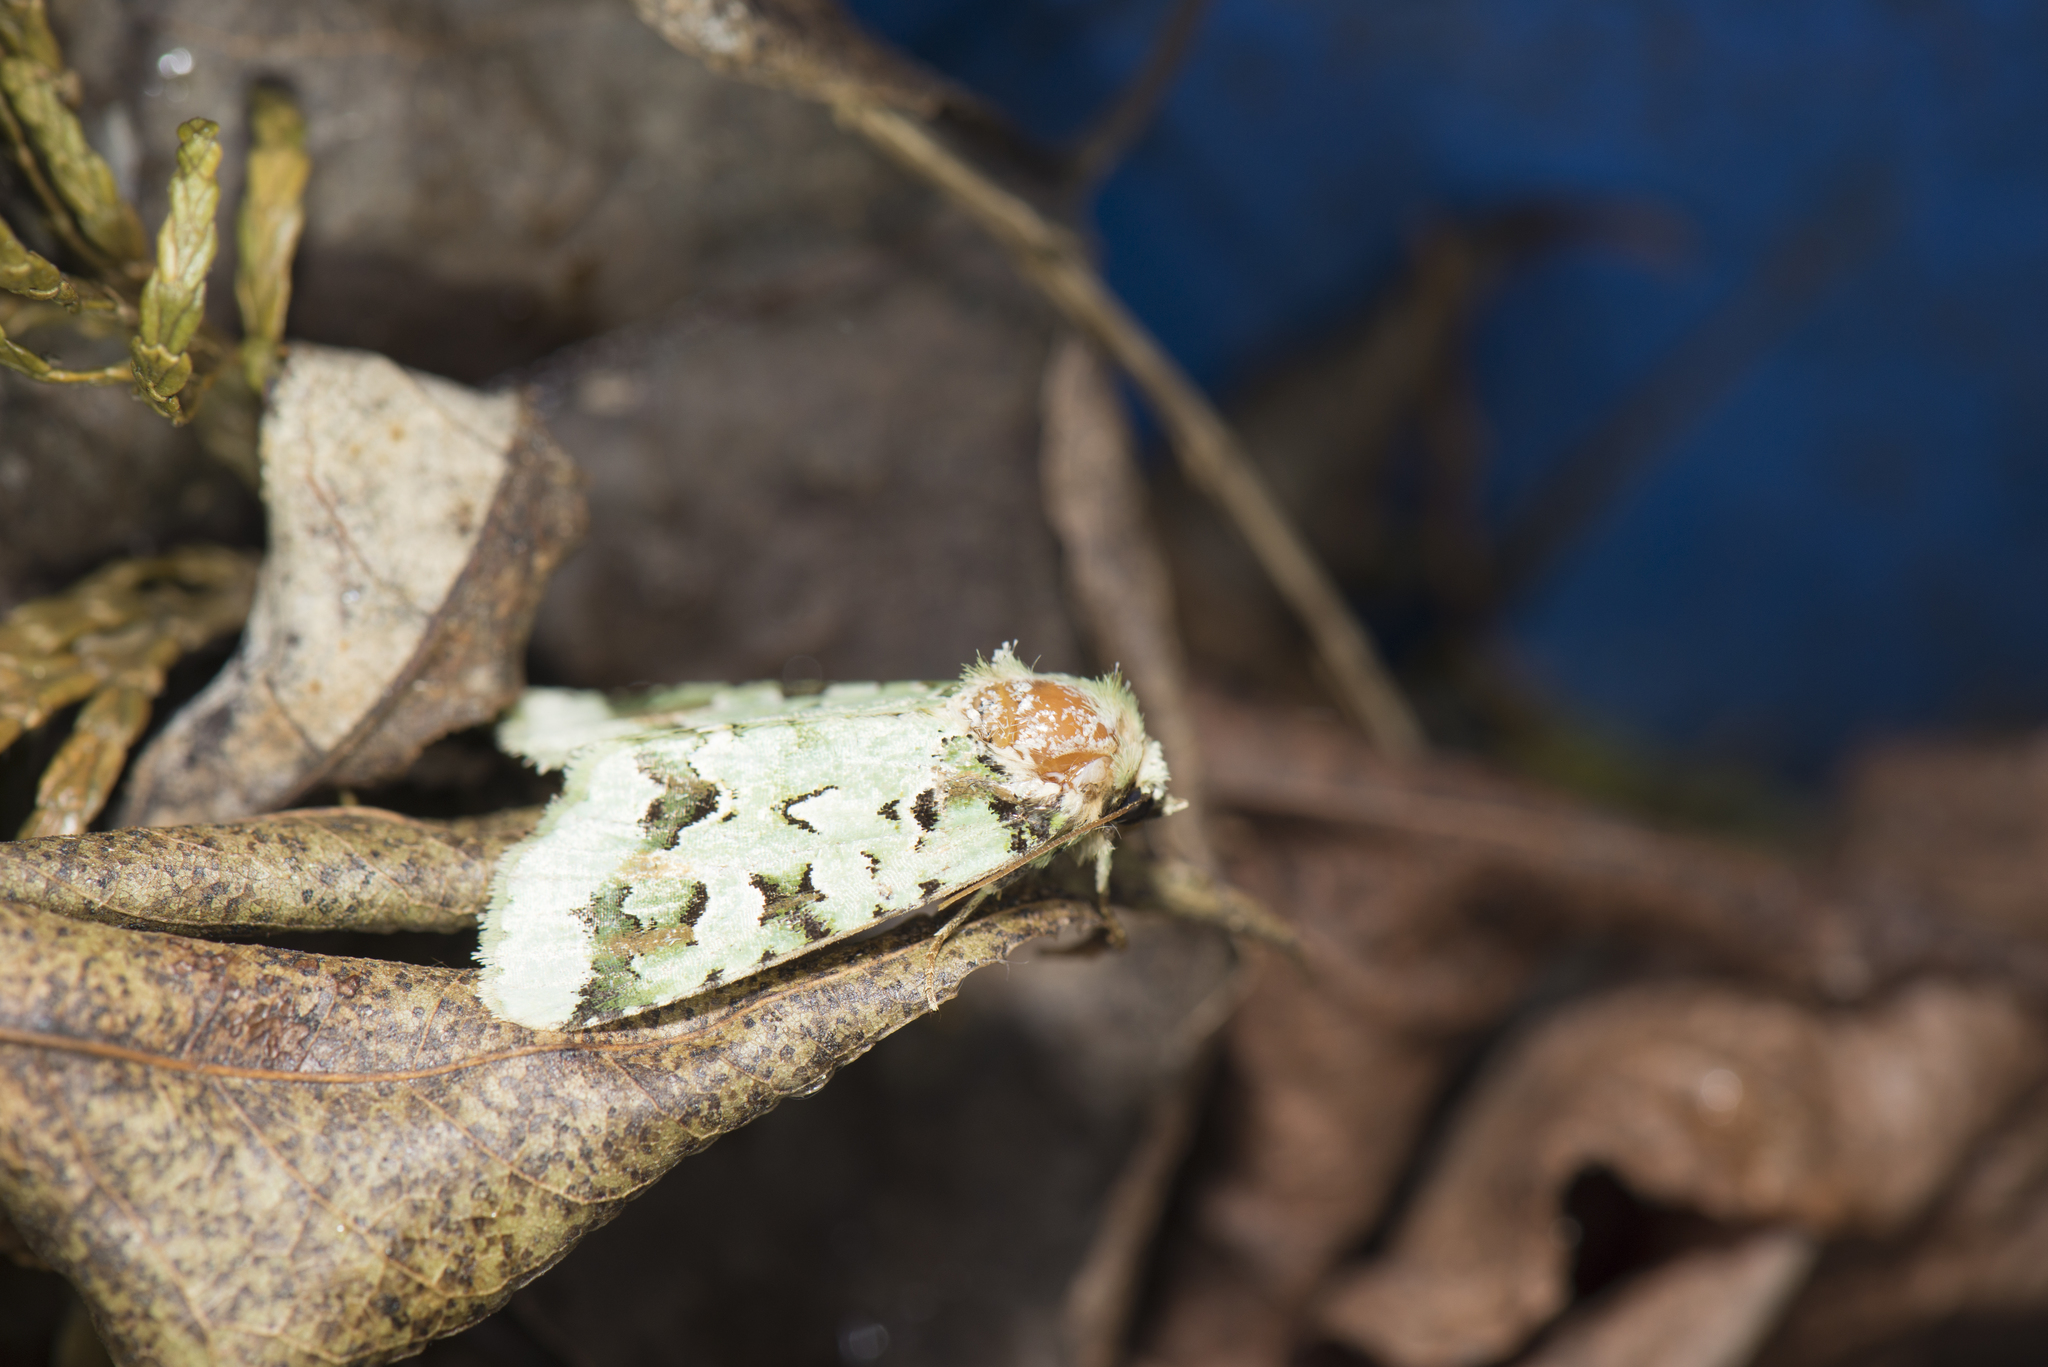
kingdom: Animalia
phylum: Arthropoda
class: Insecta
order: Lepidoptera
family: Noctuidae
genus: Daseochaeta
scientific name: Daseochaeta pulchra
